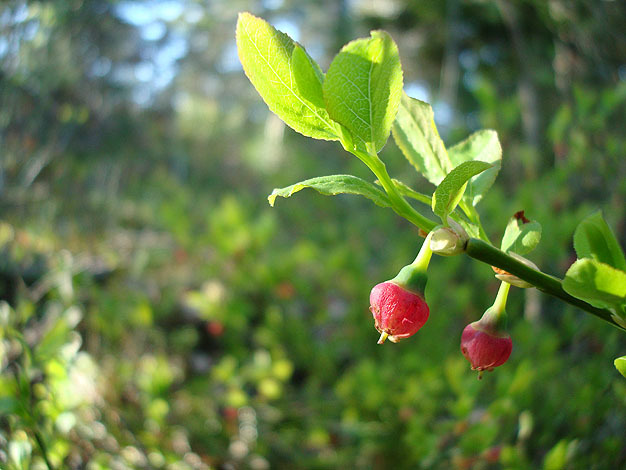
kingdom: Plantae
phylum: Tracheophyta
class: Magnoliopsida
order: Ericales
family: Ericaceae
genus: Vaccinium
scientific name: Vaccinium myrtillus
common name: Bilberry
